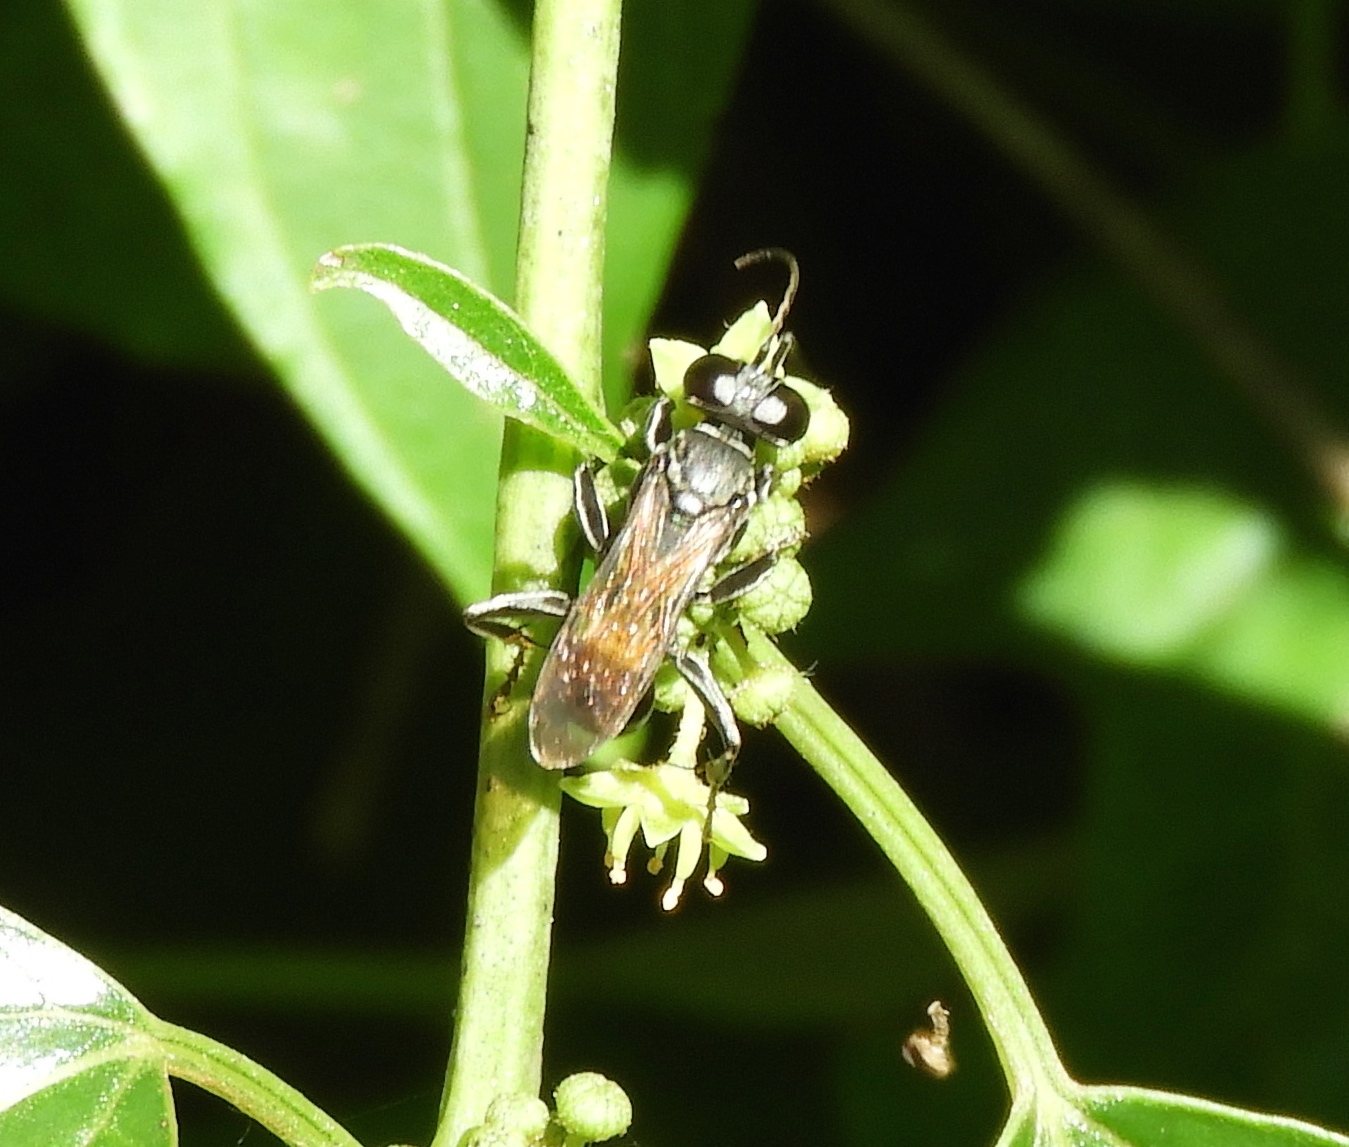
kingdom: Animalia
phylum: Arthropoda
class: Insecta
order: Hymenoptera
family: Crabronidae
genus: Liris
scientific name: Liris
